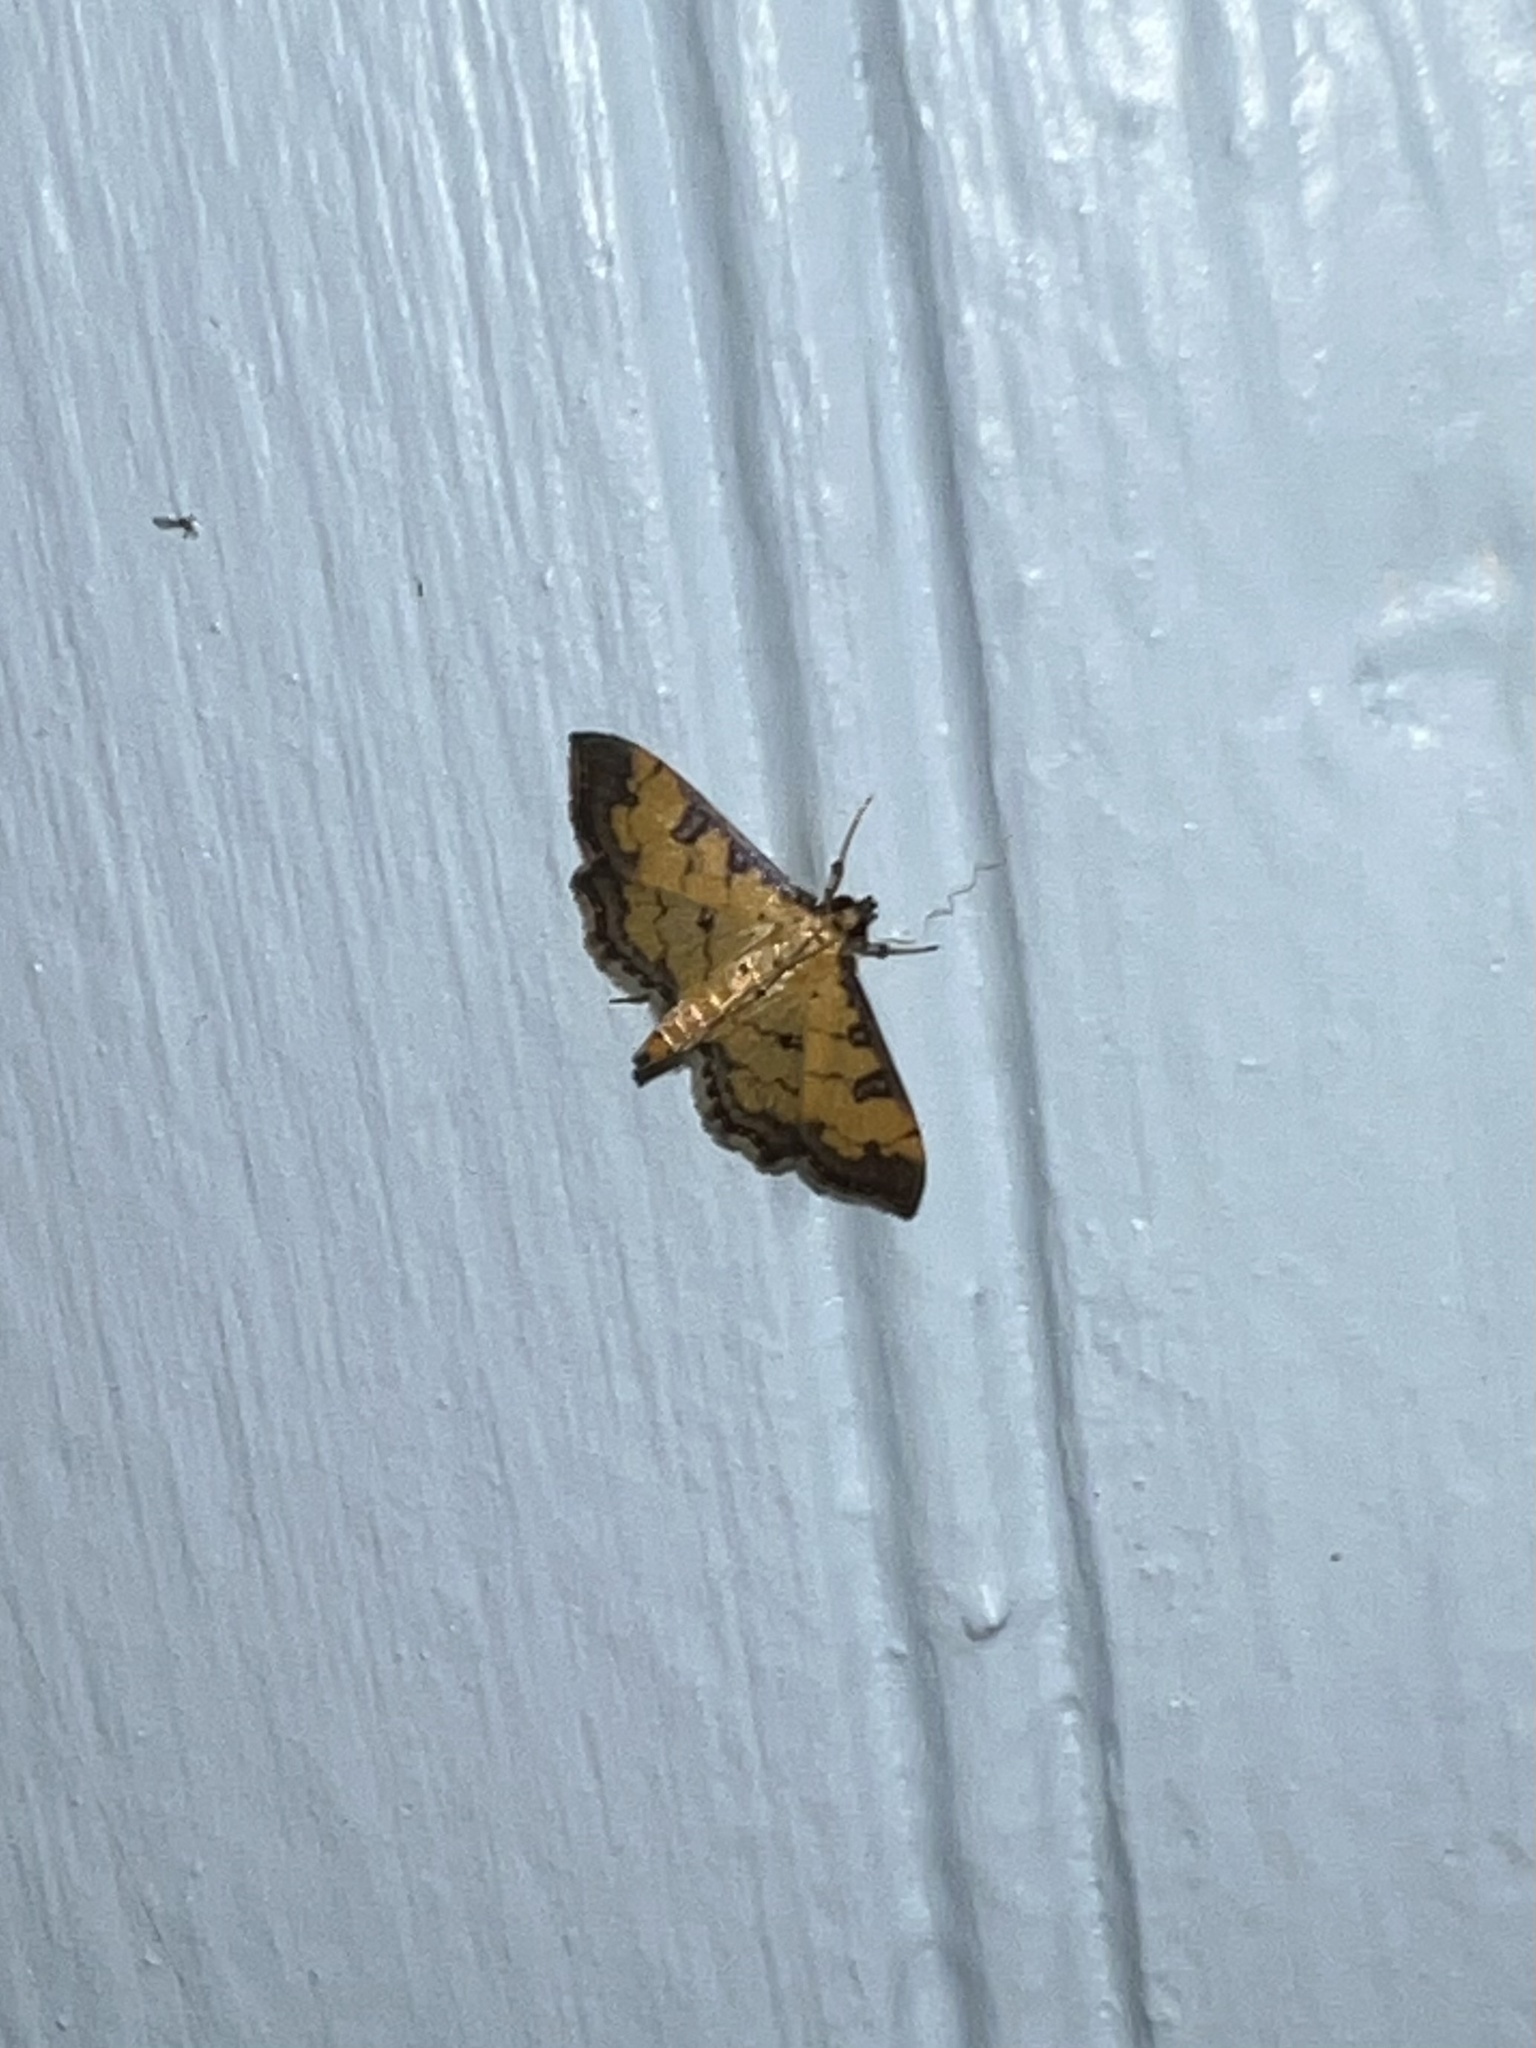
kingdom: Animalia
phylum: Arthropoda
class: Insecta
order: Lepidoptera
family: Crambidae
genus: Ategumia
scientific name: Ategumia ebulealis
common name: Moth
